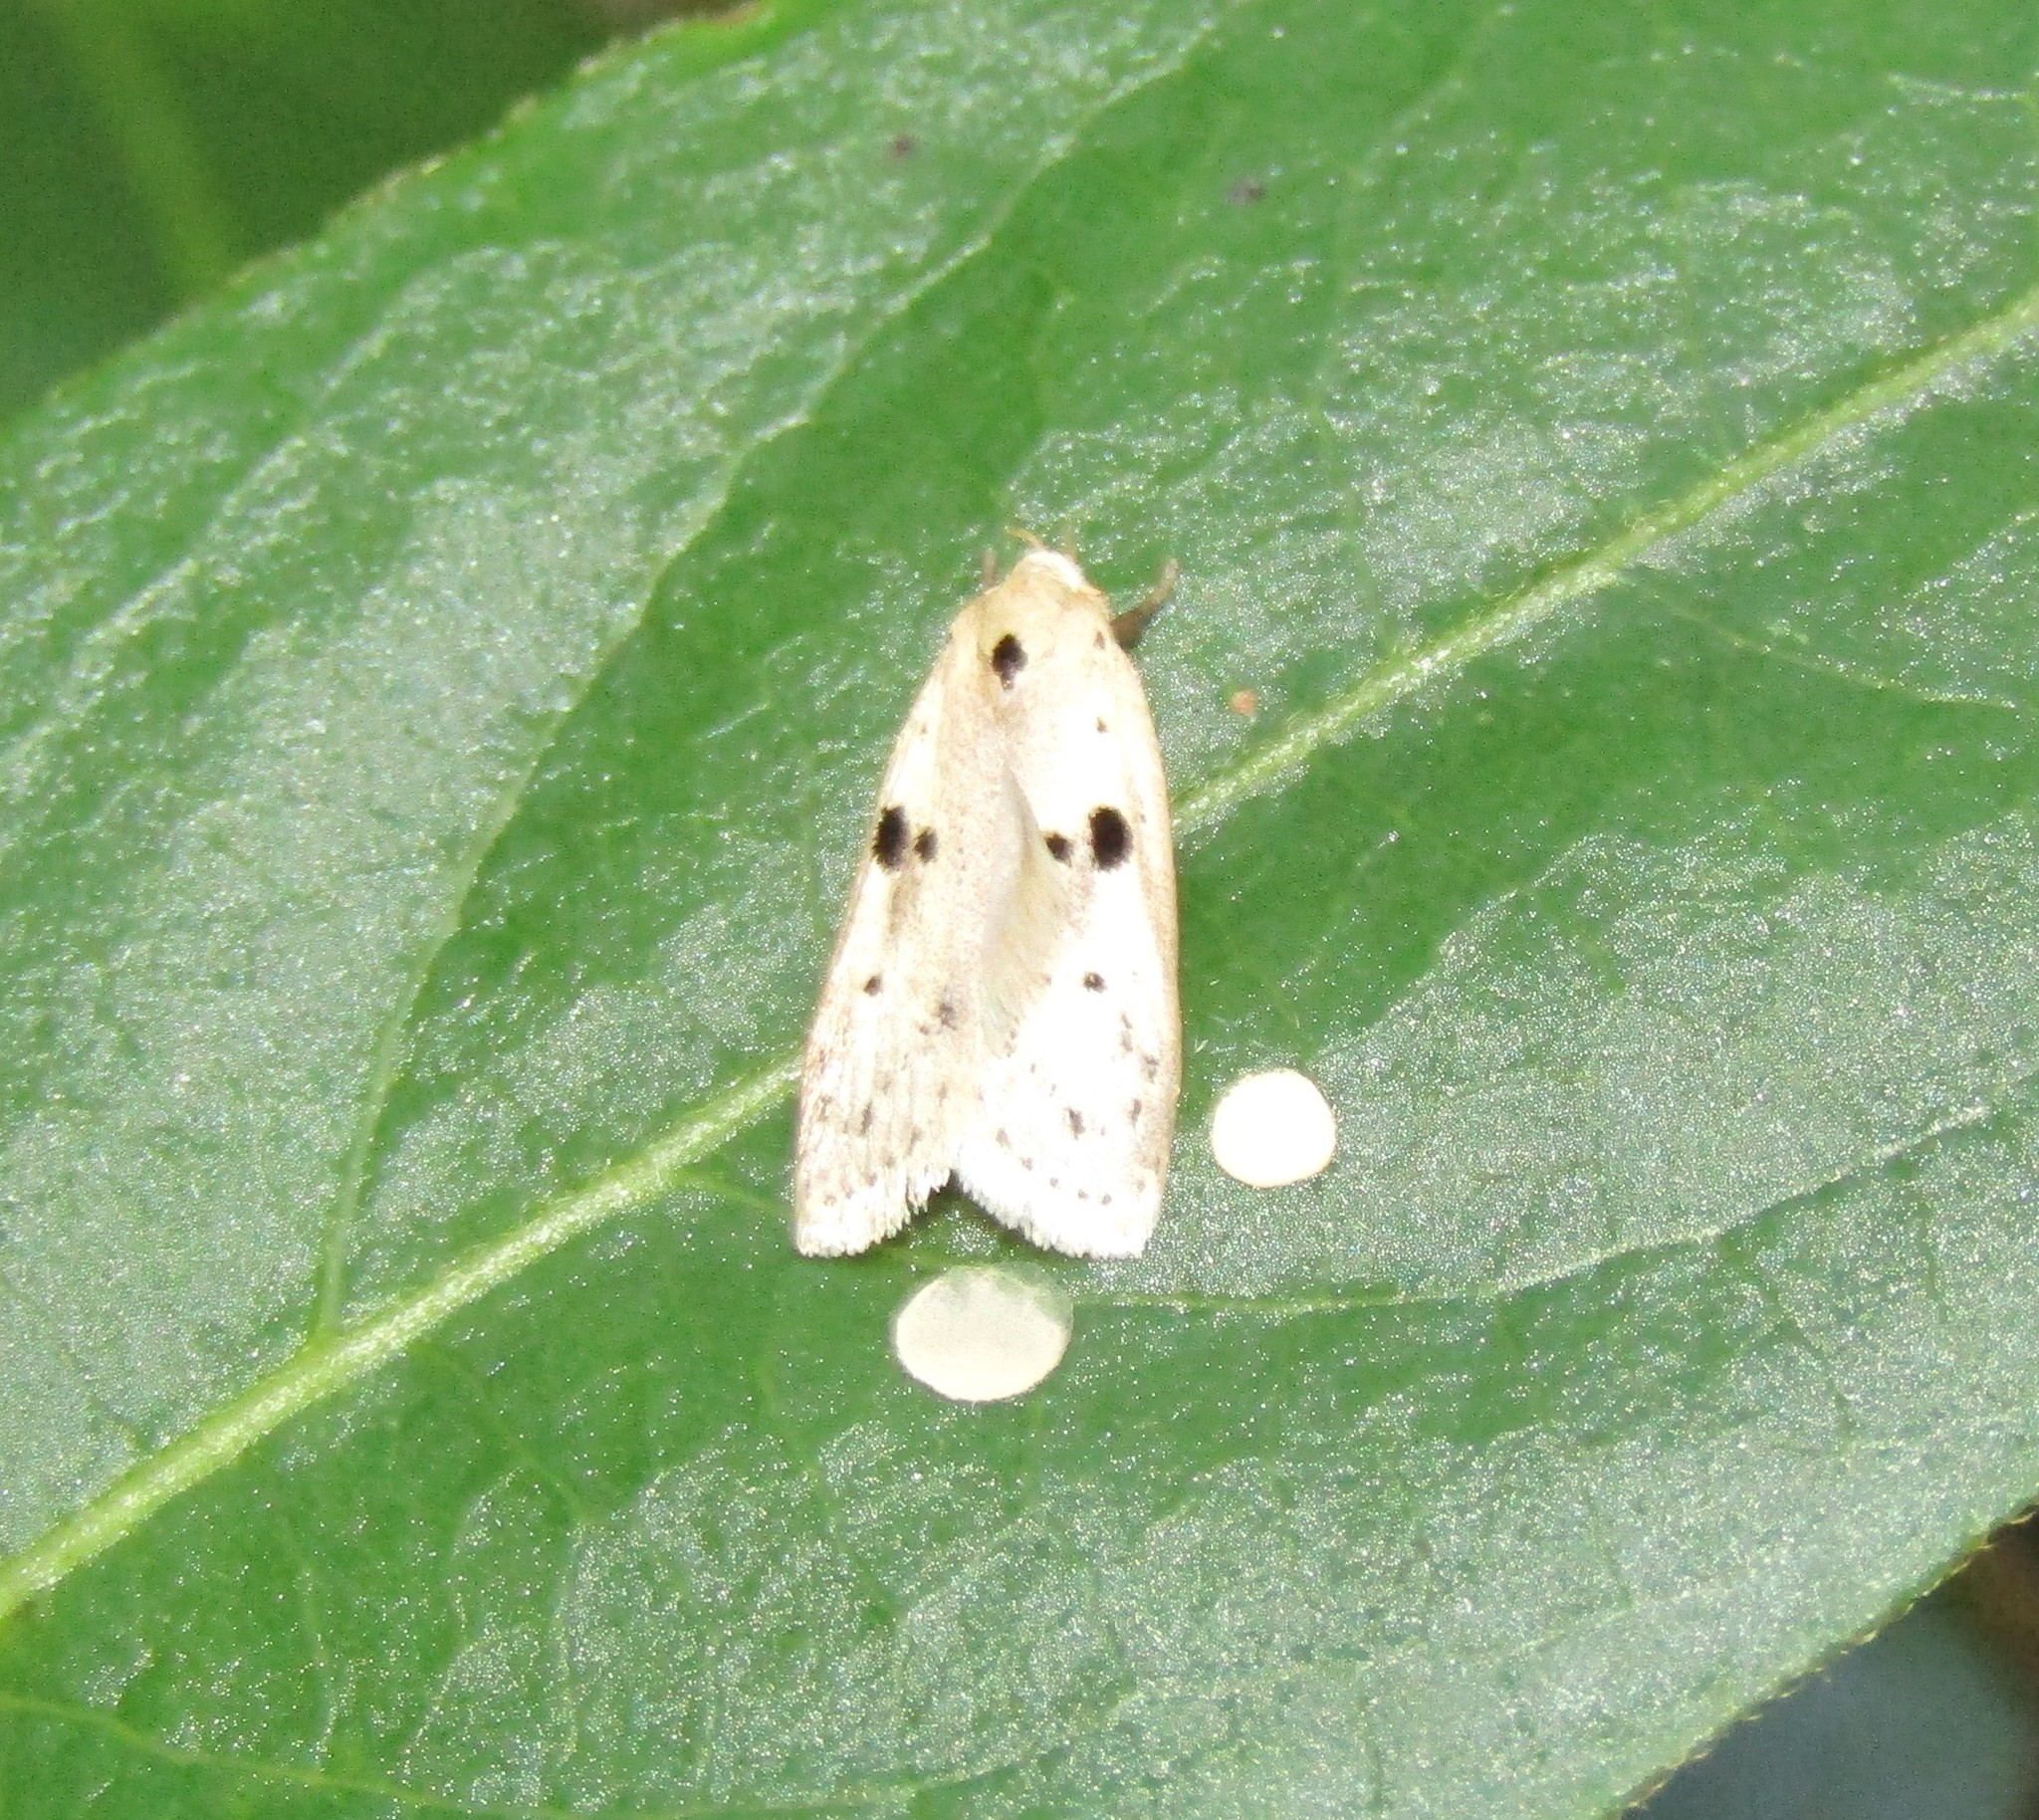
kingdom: Animalia
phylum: Arthropoda
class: Insecta
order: Lepidoptera
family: Peleopodidae
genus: Scythropiodes
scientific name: Scythropiodes issikii
